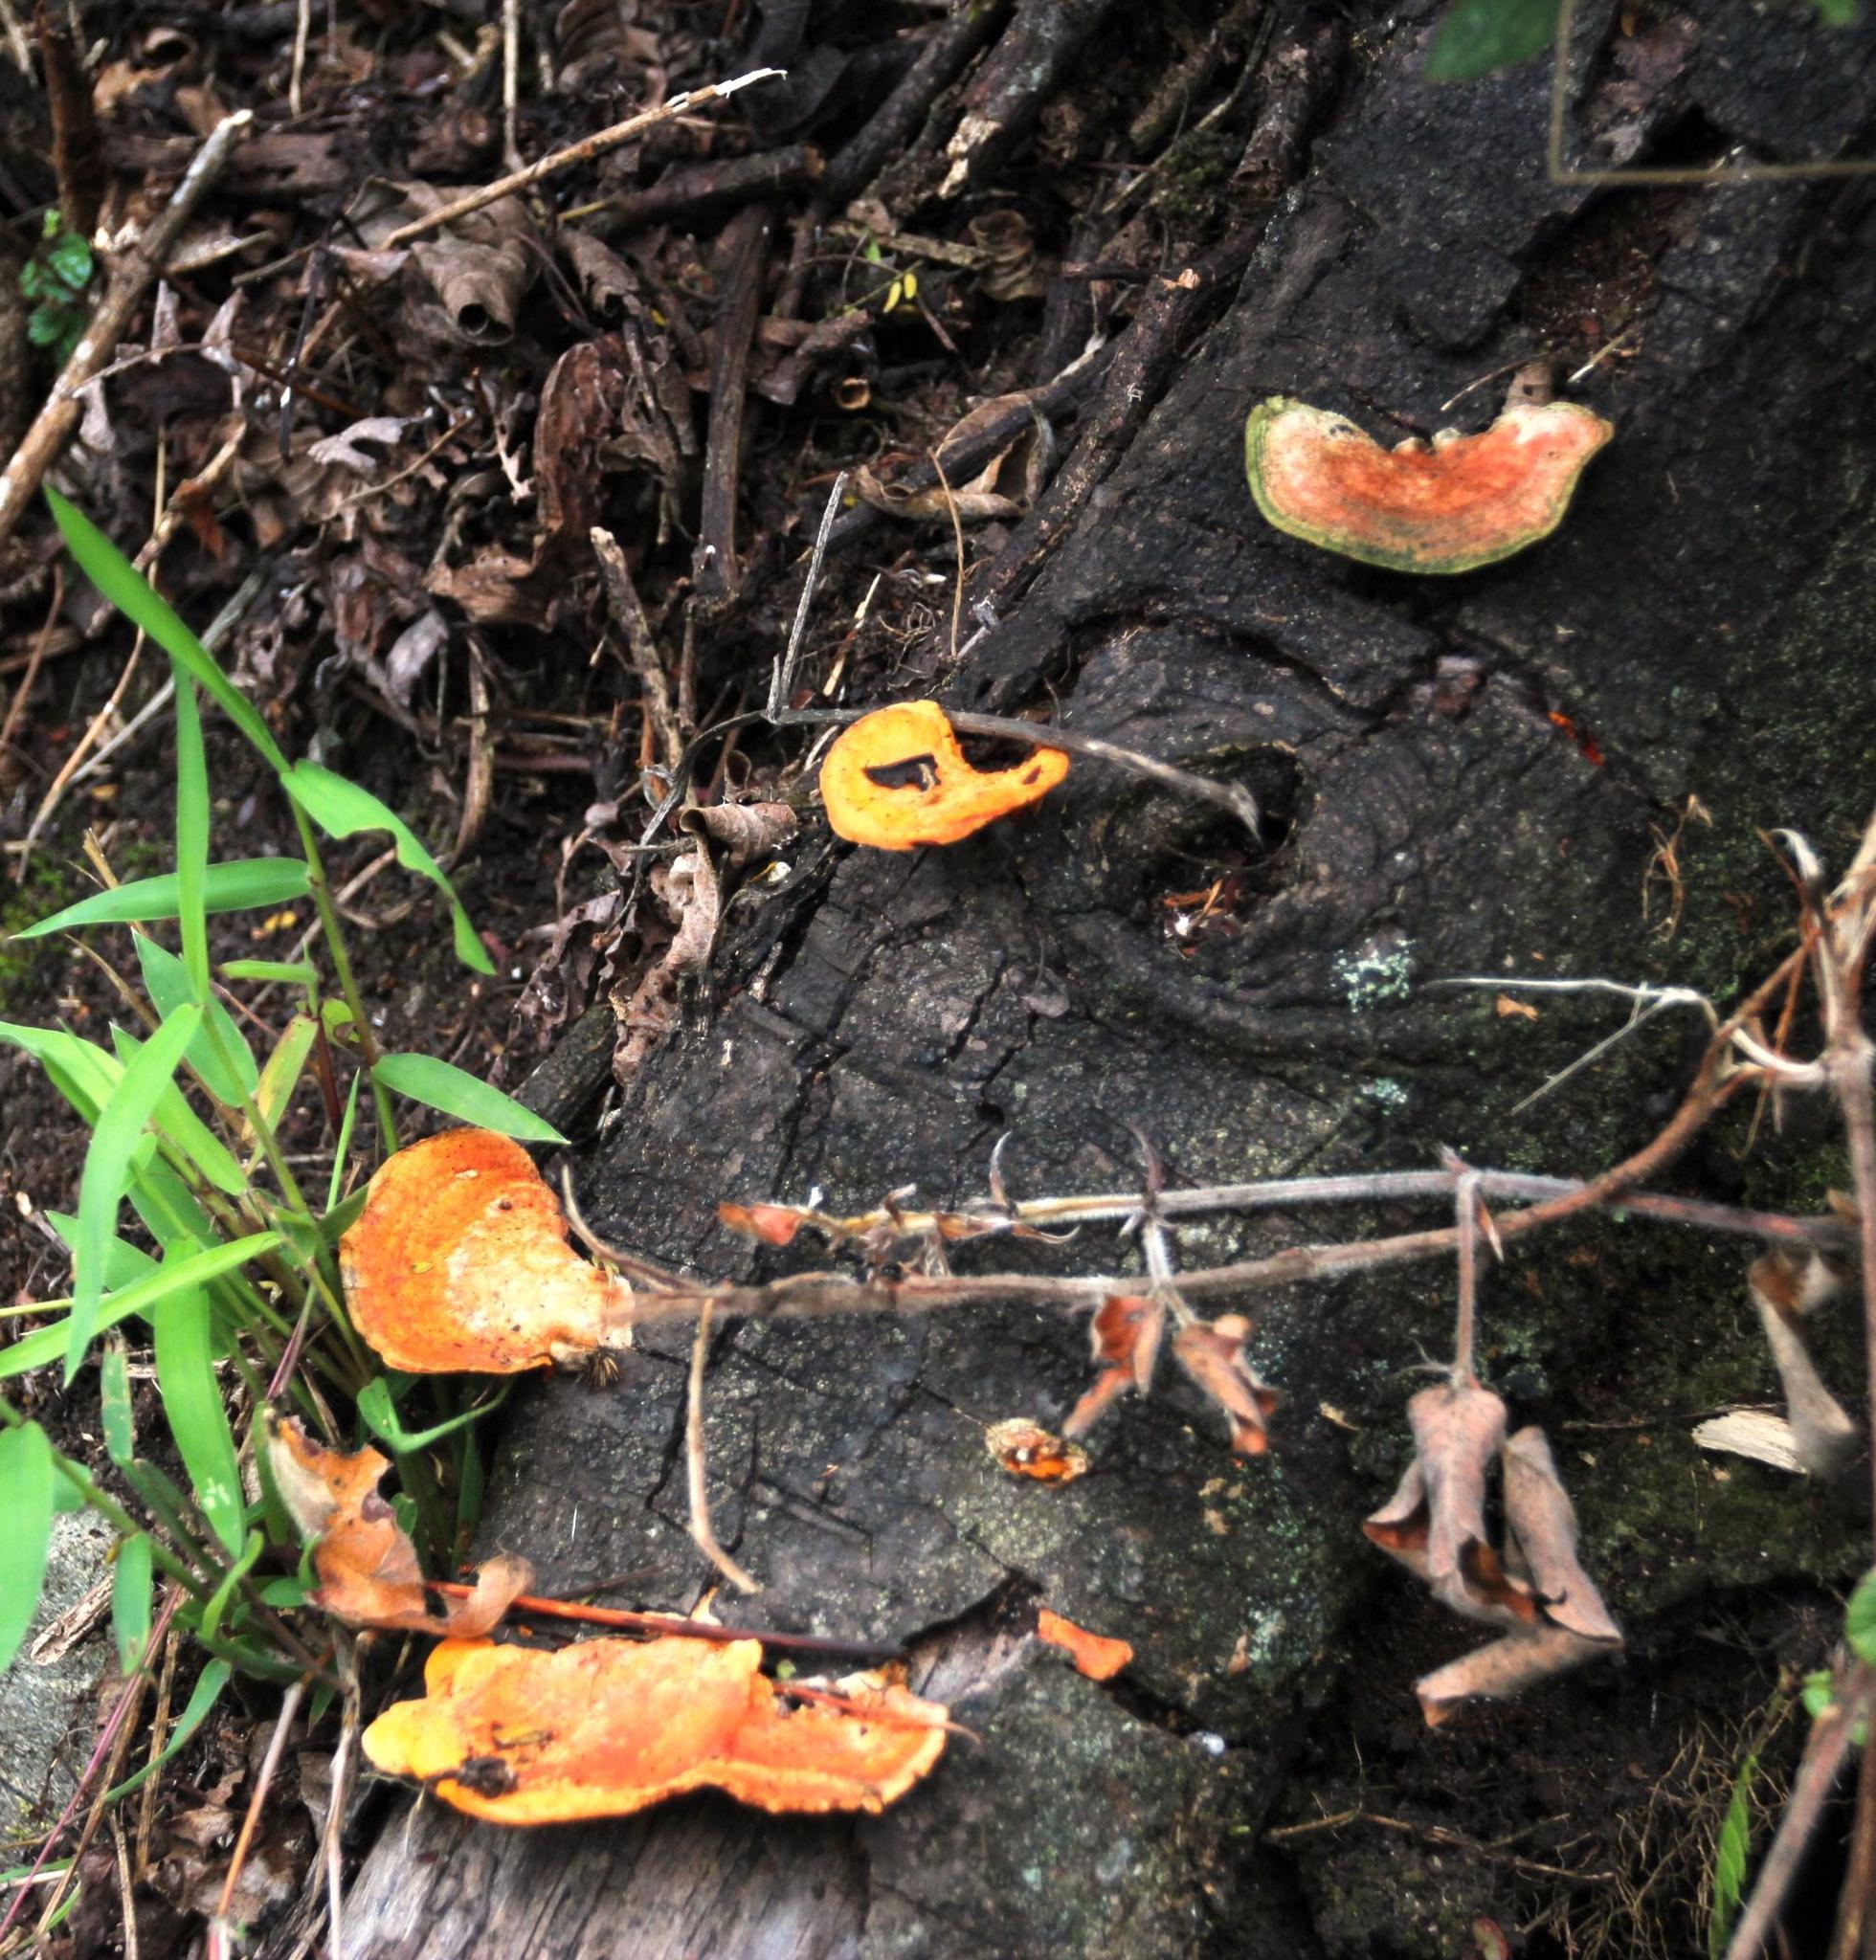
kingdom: Fungi
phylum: Basidiomycota
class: Agaricomycetes
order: Polyporales
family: Polyporaceae
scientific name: Polyporaceae
